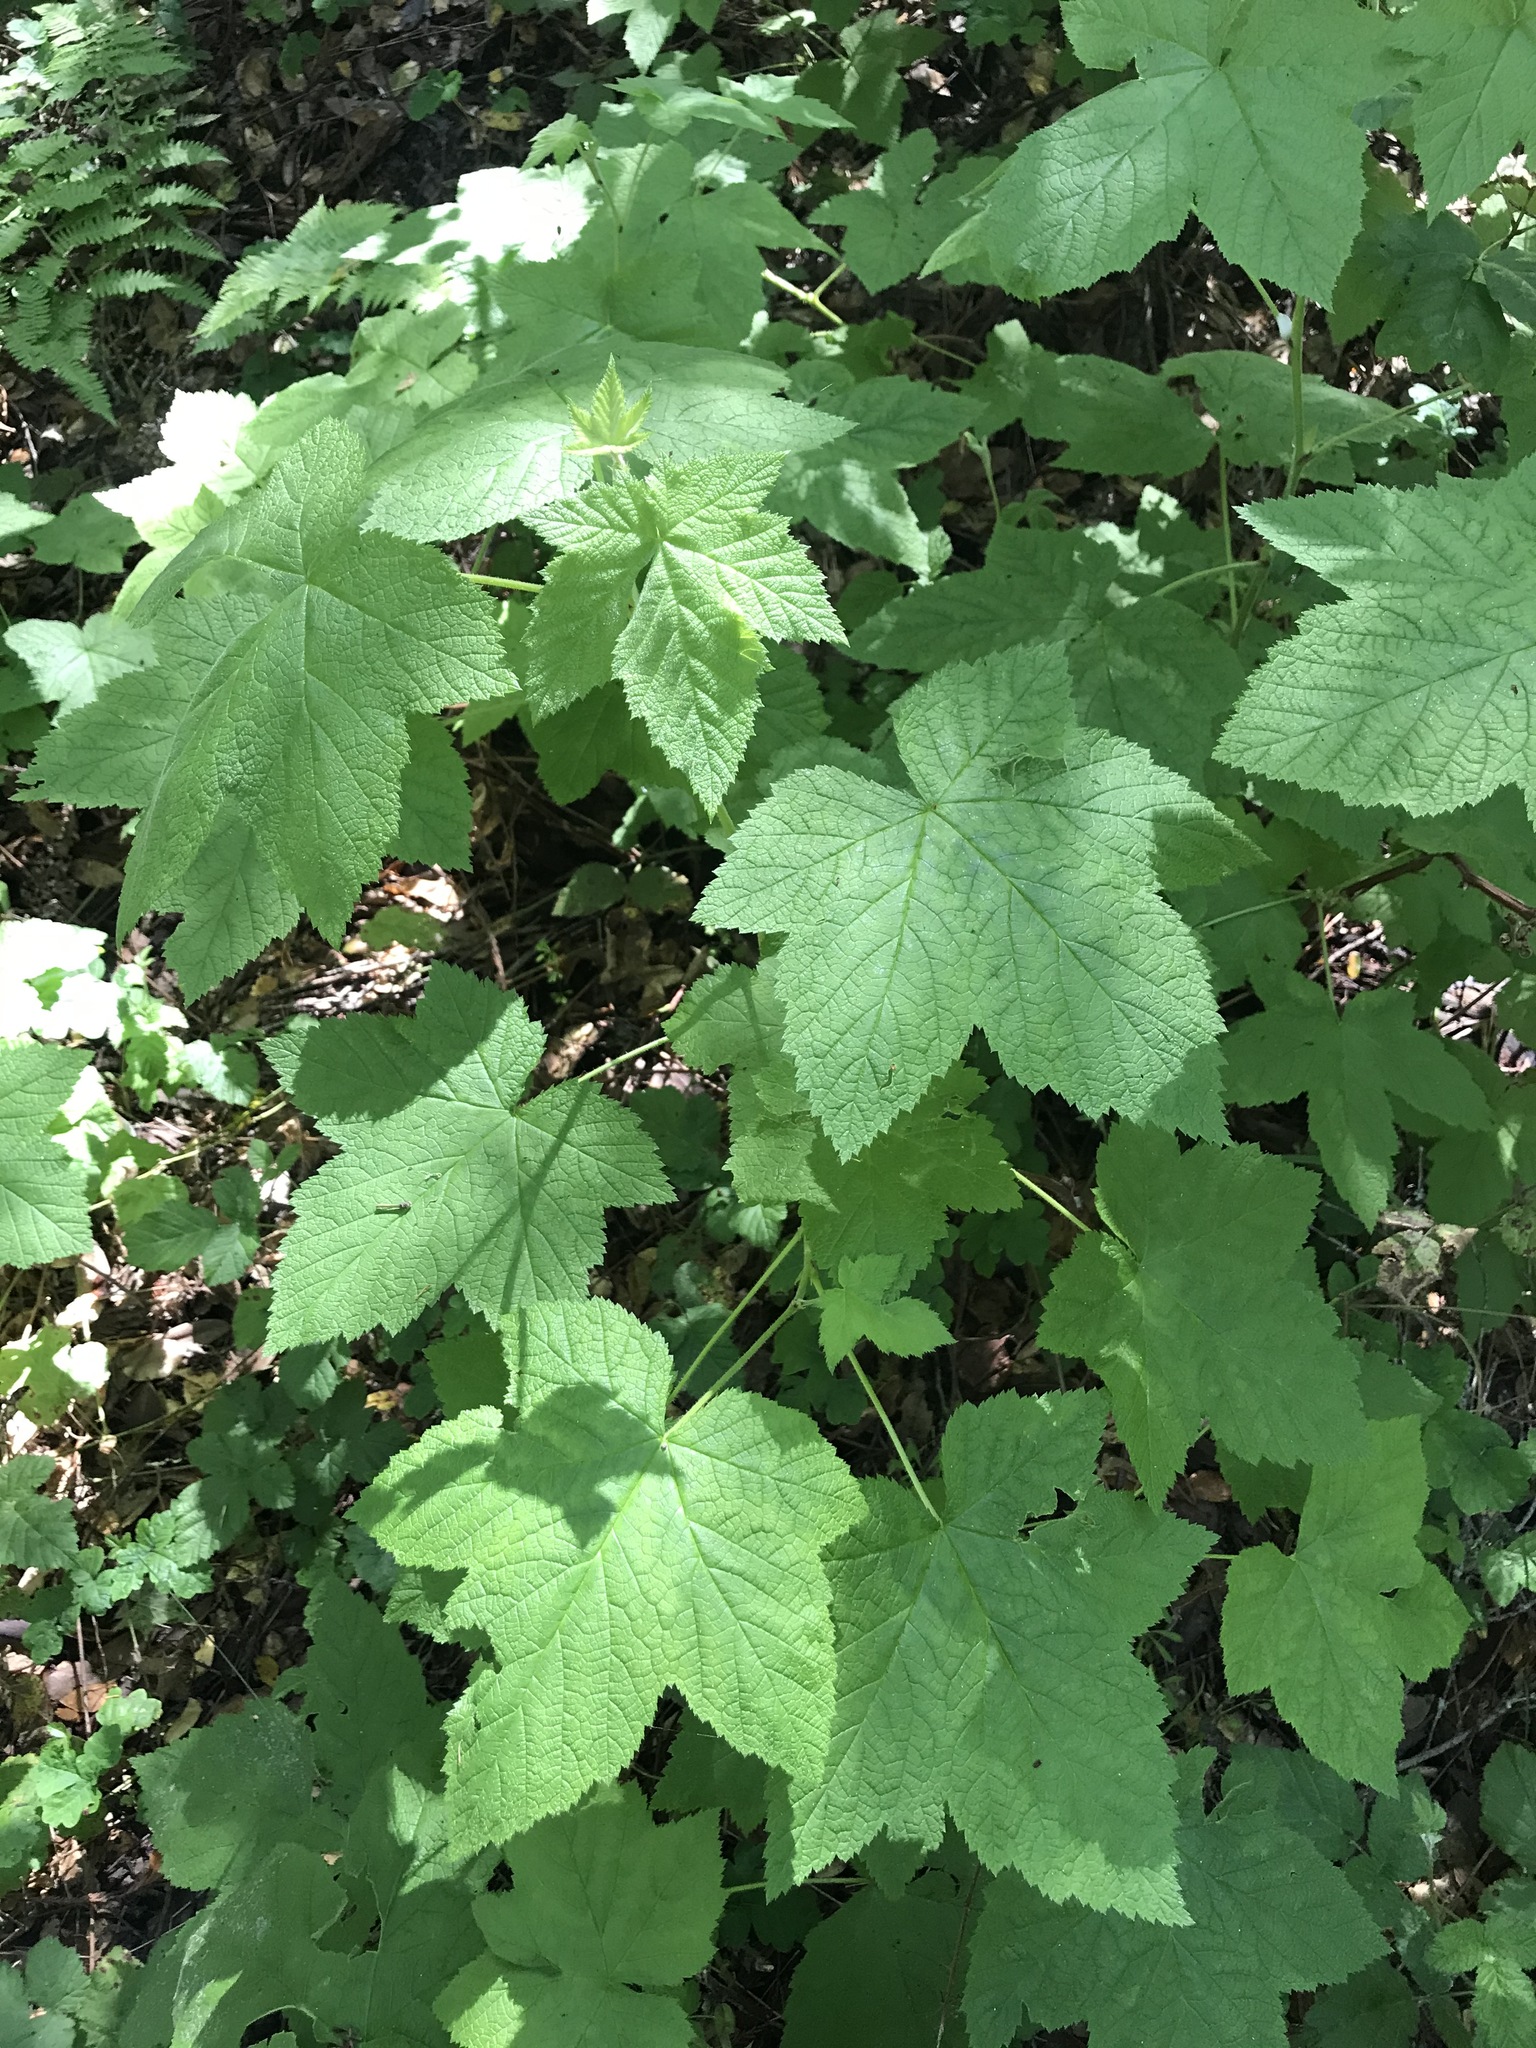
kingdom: Plantae
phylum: Tracheophyta
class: Magnoliopsida
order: Rosales
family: Rosaceae
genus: Rubus
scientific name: Rubus parviflorus
